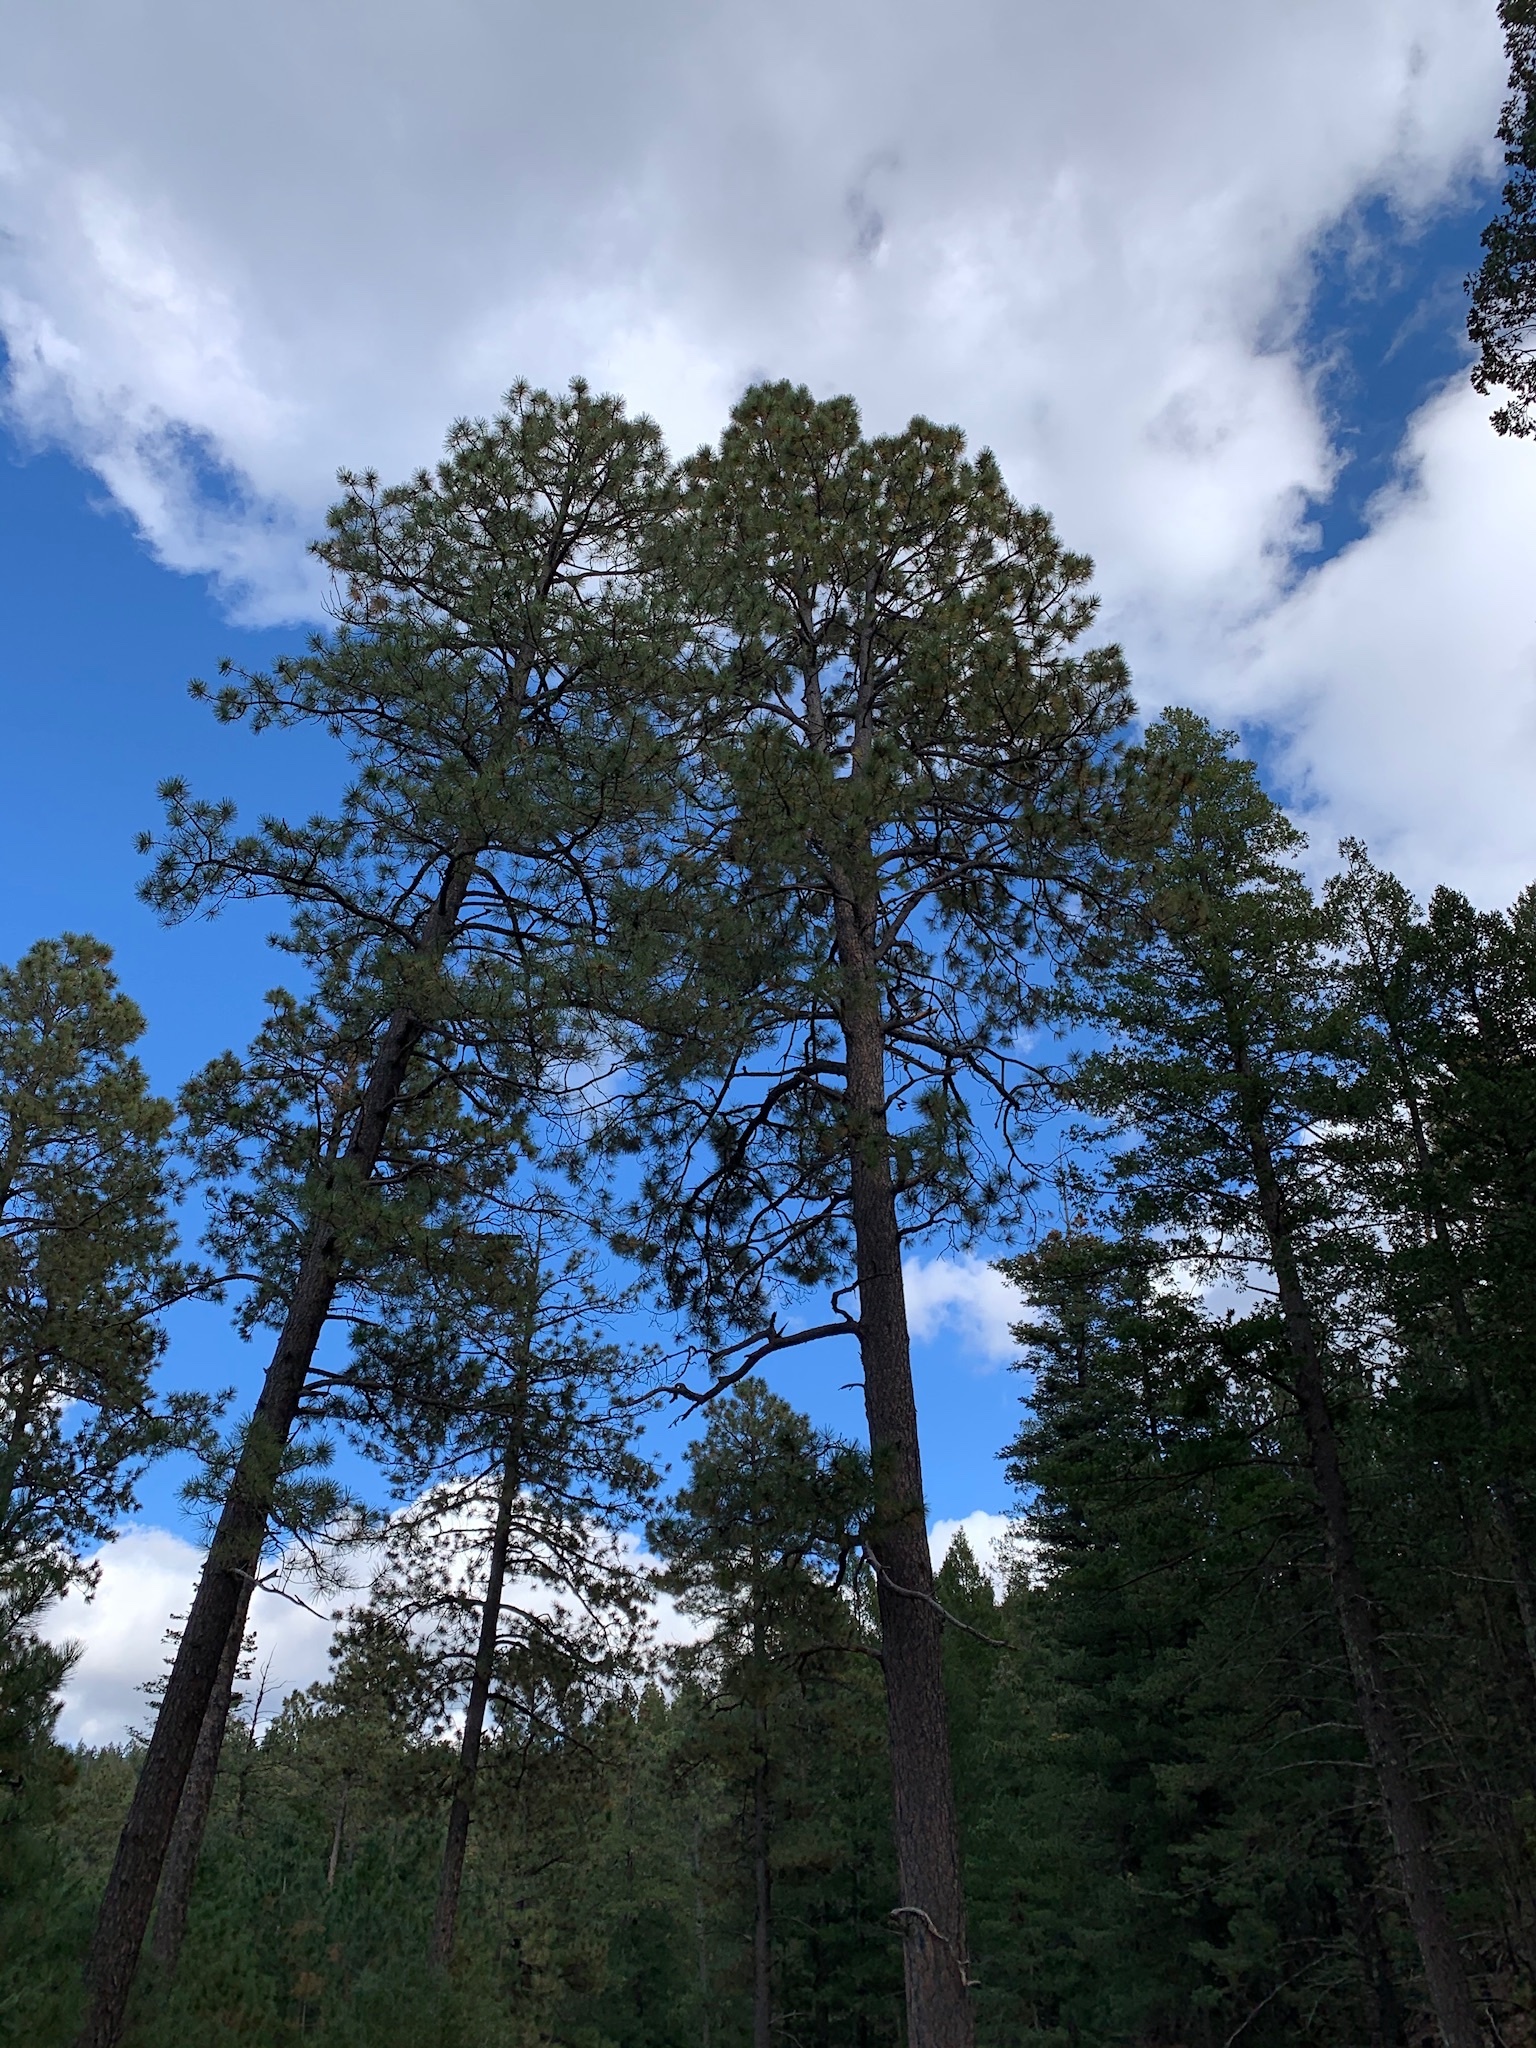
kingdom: Plantae
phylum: Tracheophyta
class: Pinopsida
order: Pinales
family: Pinaceae
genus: Pinus
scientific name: Pinus ponderosa
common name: Western yellow-pine
